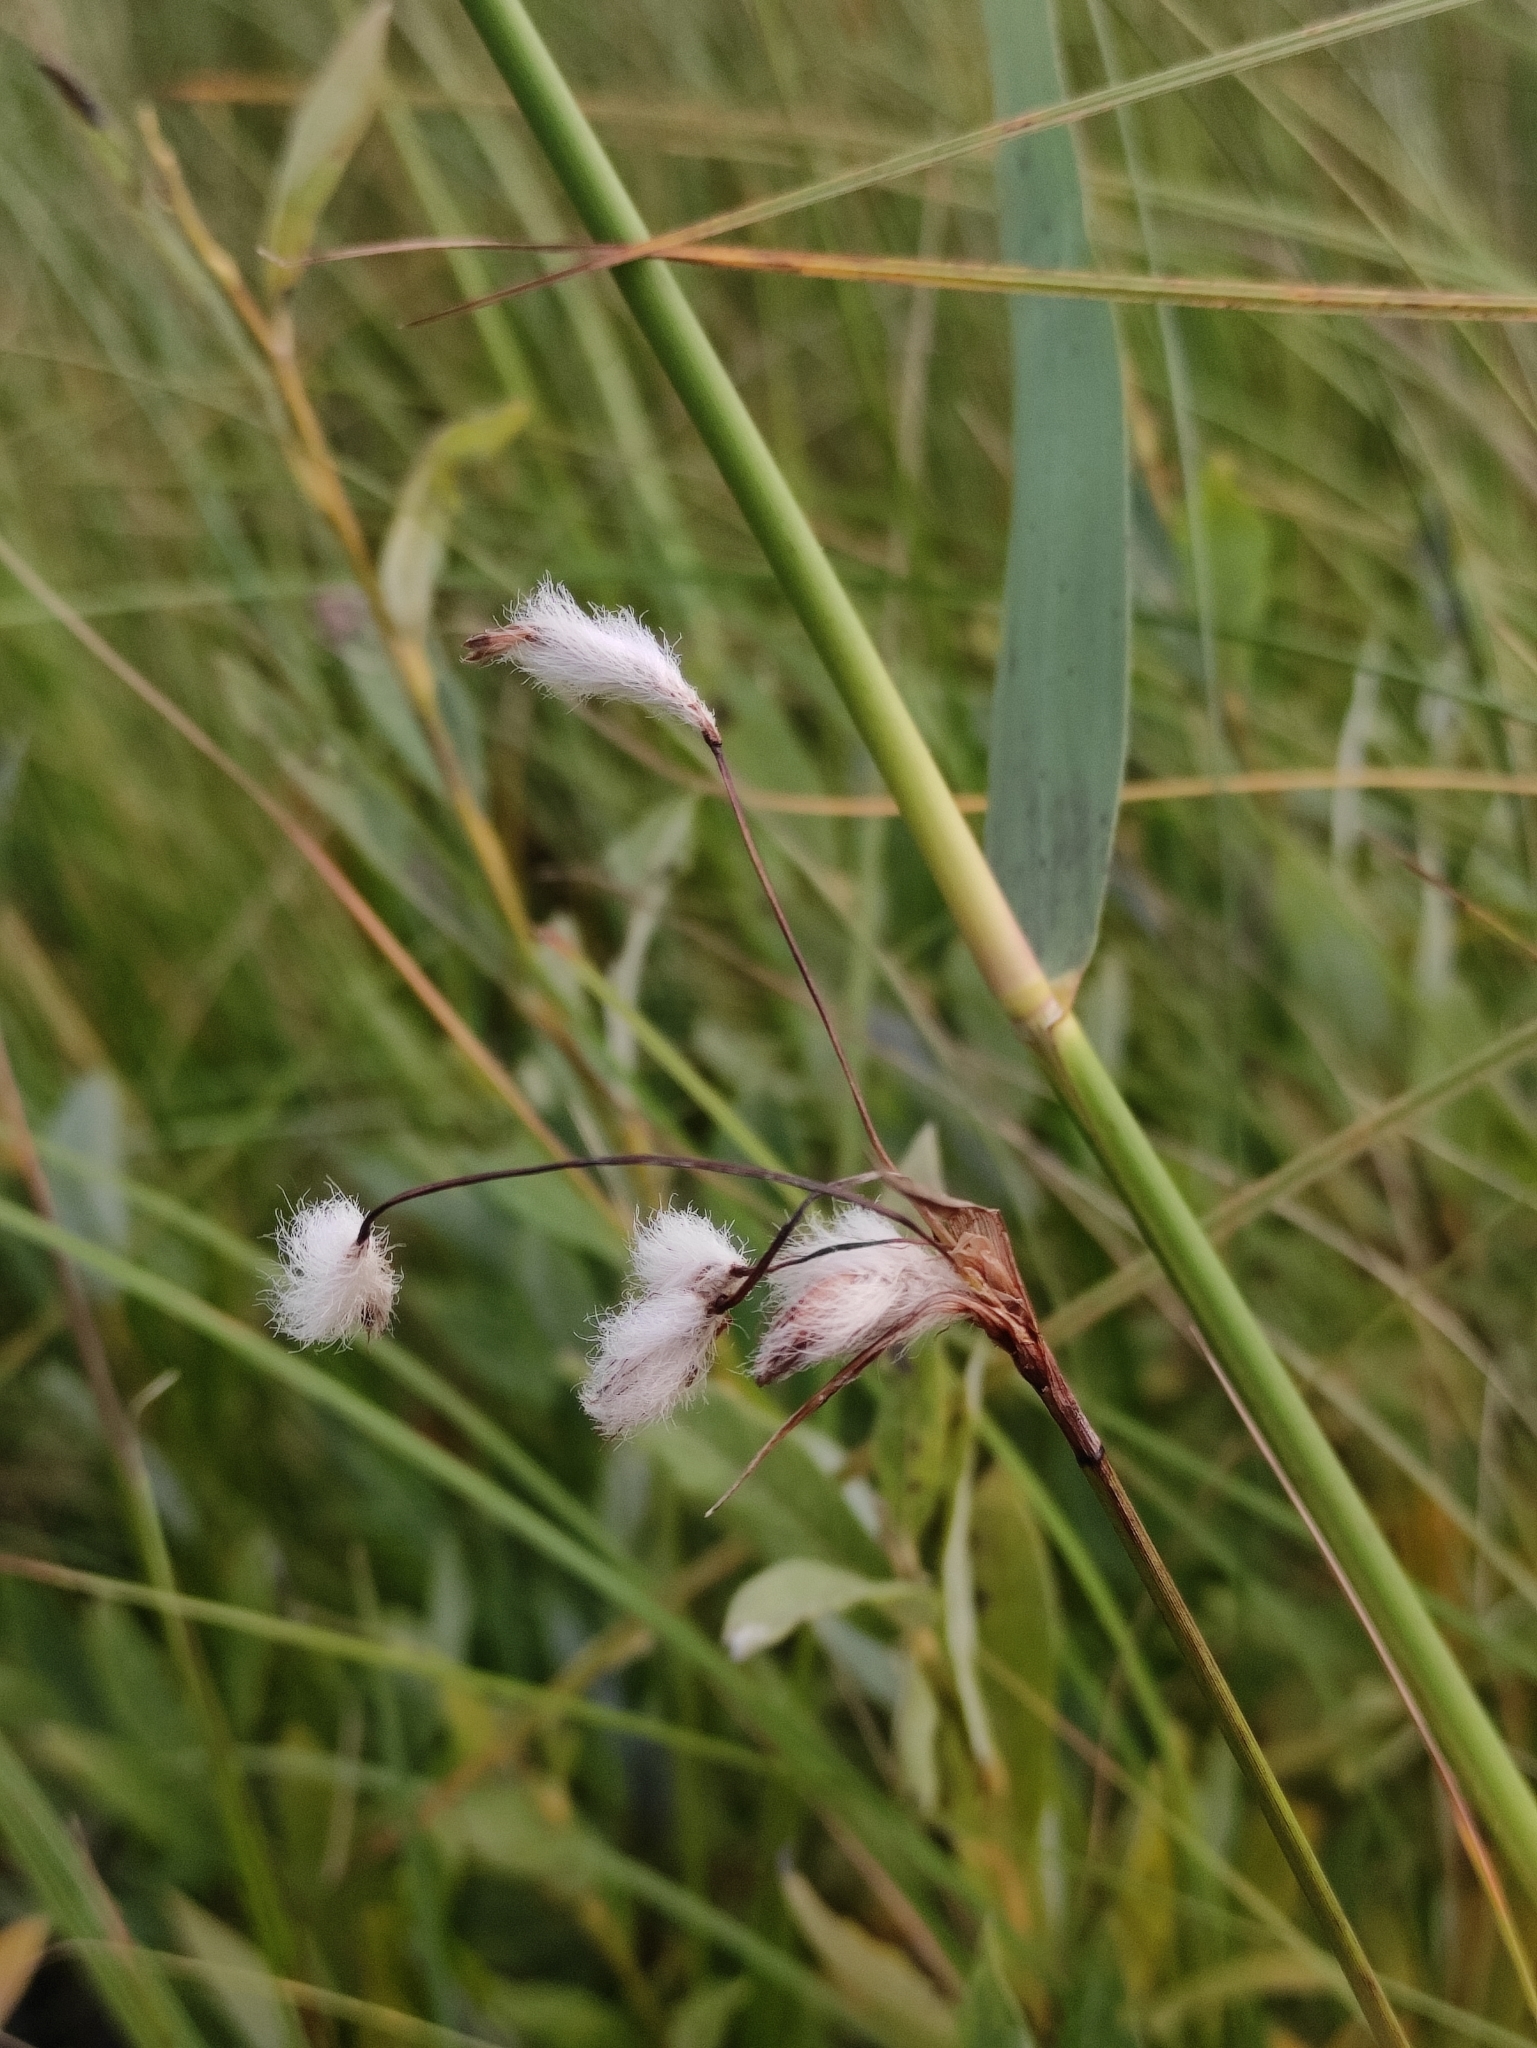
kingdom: Plantae
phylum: Tracheophyta
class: Liliopsida
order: Poales
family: Cyperaceae
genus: Eriophorum
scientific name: Eriophorum angustifolium
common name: Common cottongrass
